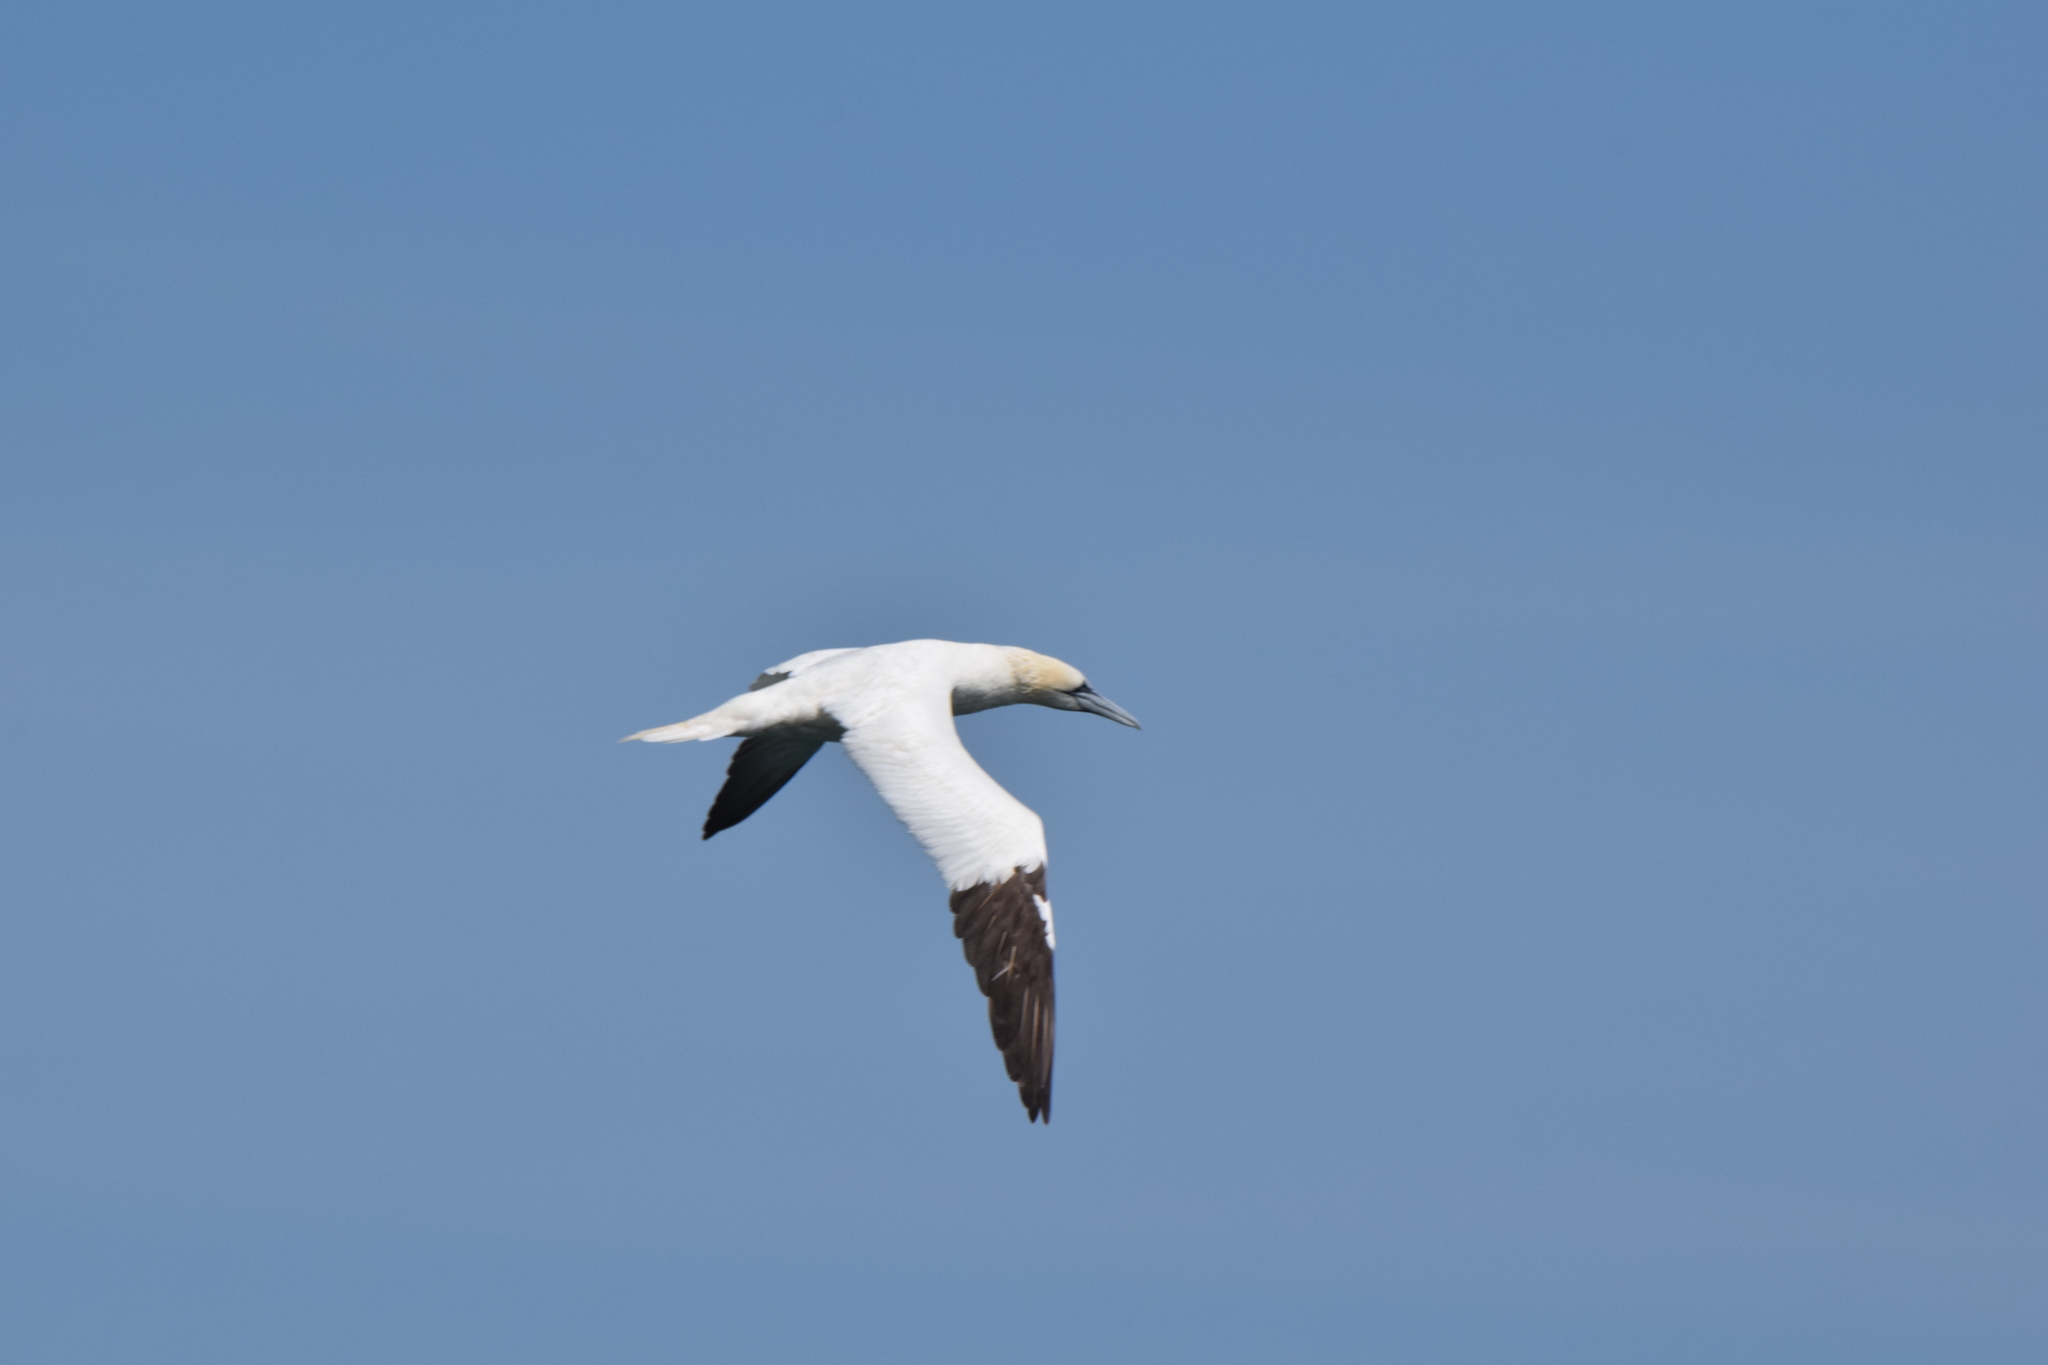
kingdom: Animalia
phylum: Chordata
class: Aves
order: Suliformes
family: Sulidae
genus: Morus
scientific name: Morus bassanus
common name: Northern gannet
